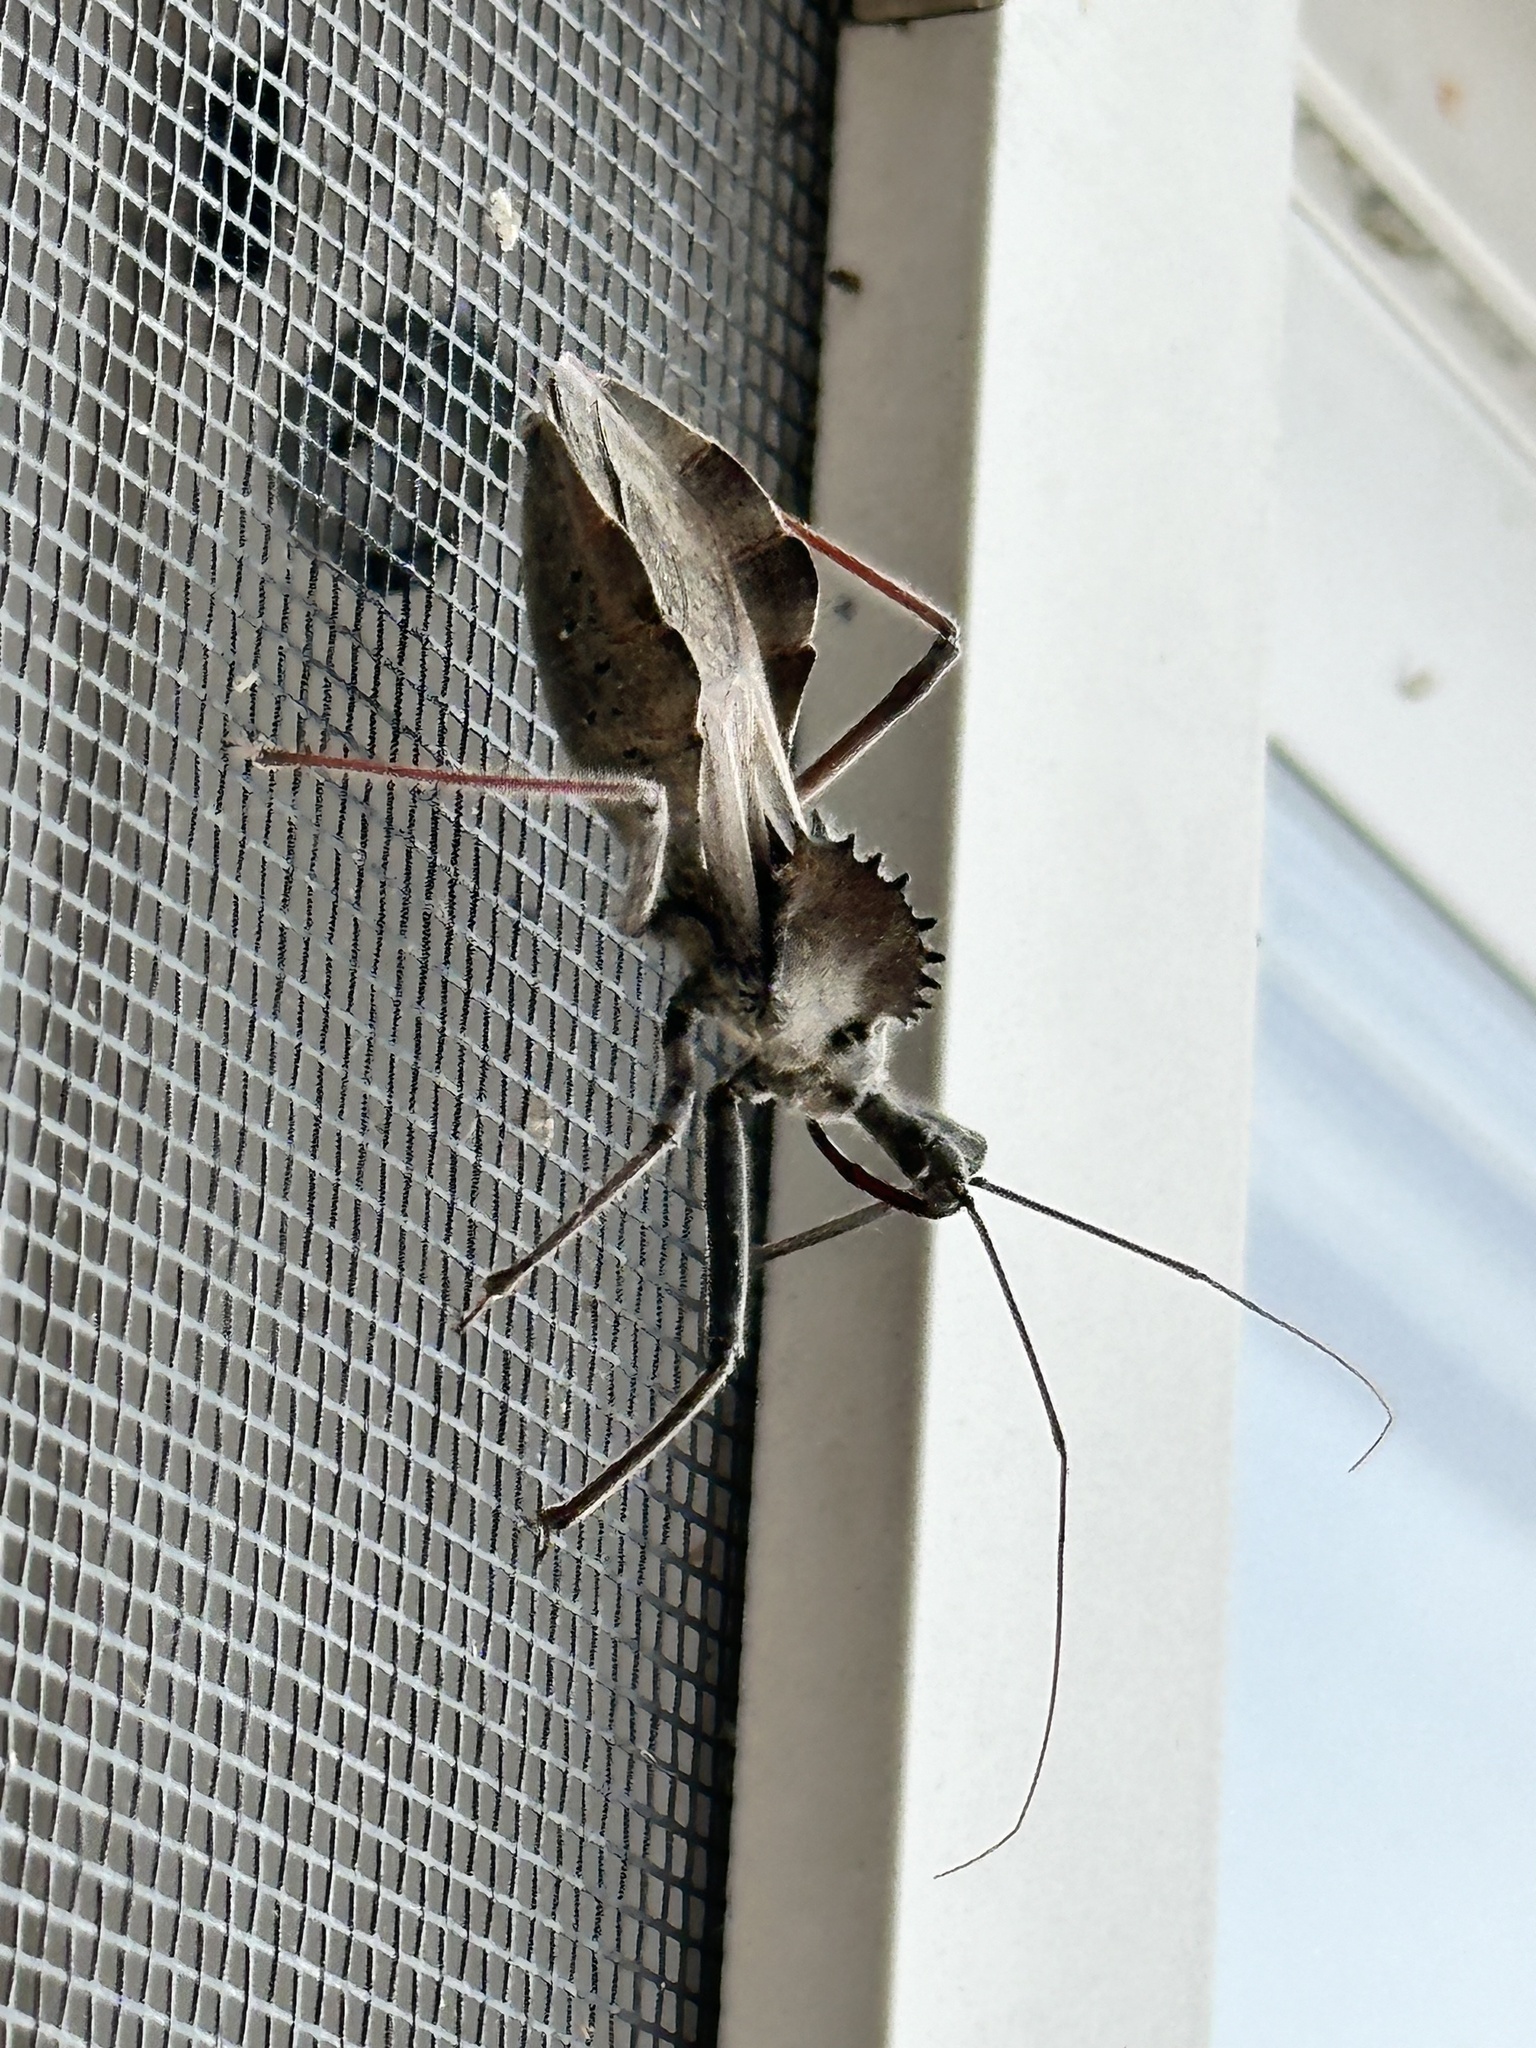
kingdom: Animalia
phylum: Arthropoda
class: Insecta
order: Hemiptera
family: Reduviidae
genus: Arilus
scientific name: Arilus cristatus
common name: North american wheel bug
